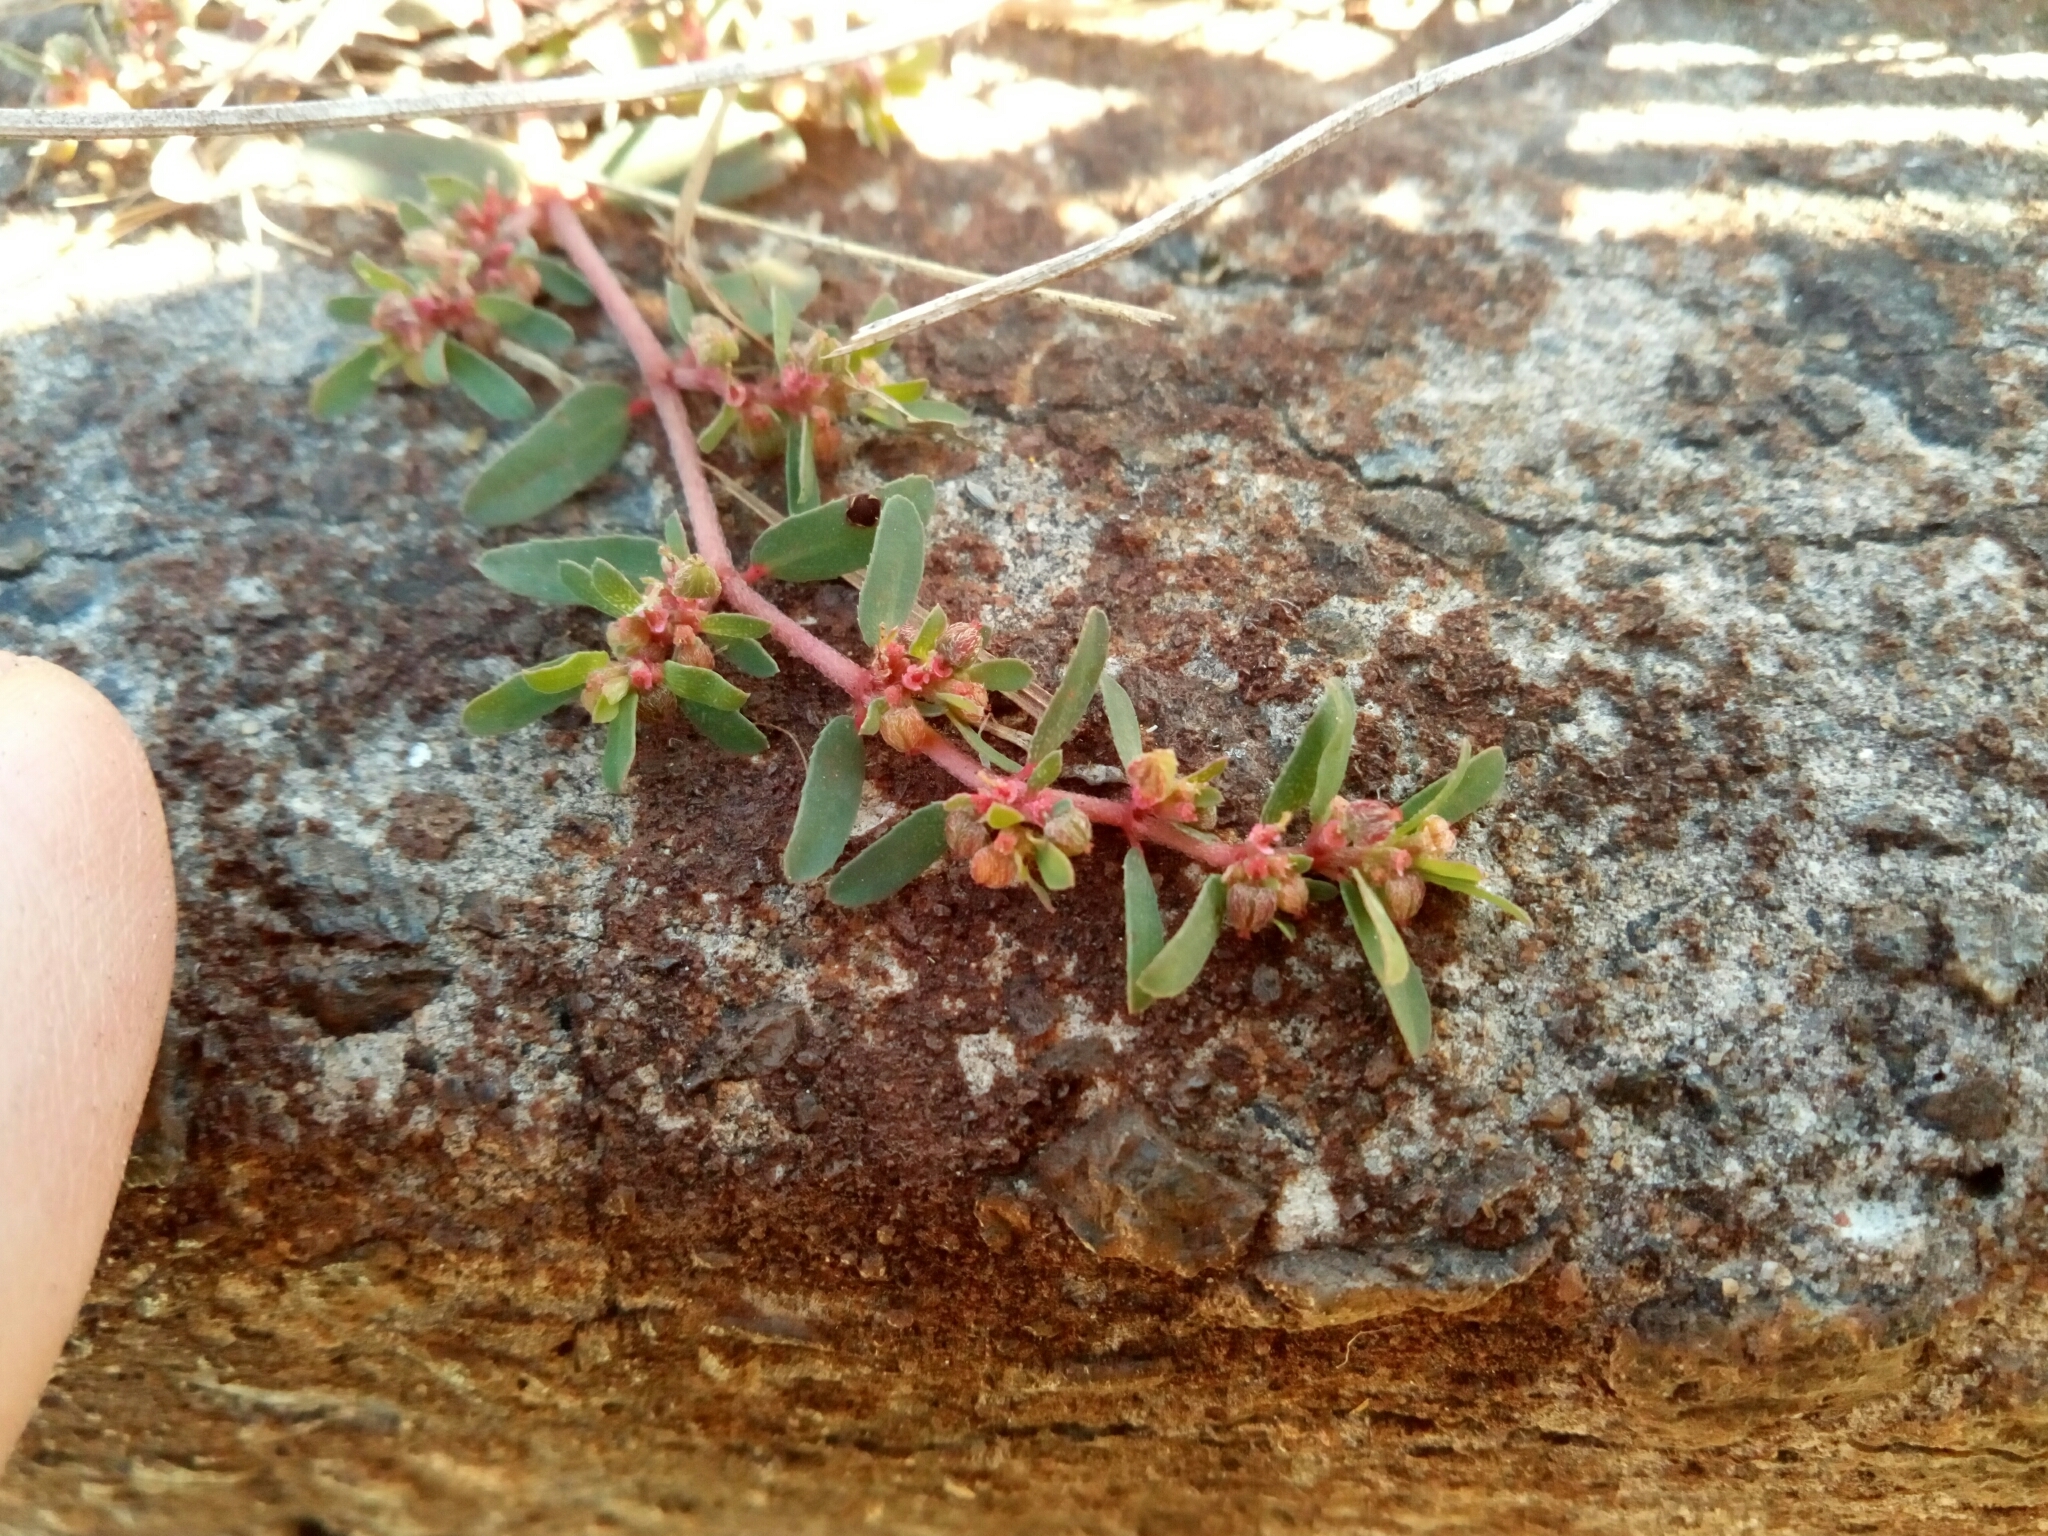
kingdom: Plantae
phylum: Tracheophyta
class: Magnoliopsida
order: Malpighiales
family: Euphorbiaceae
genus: Euphorbia
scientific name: Euphorbia maculata
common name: Spotted spurge
